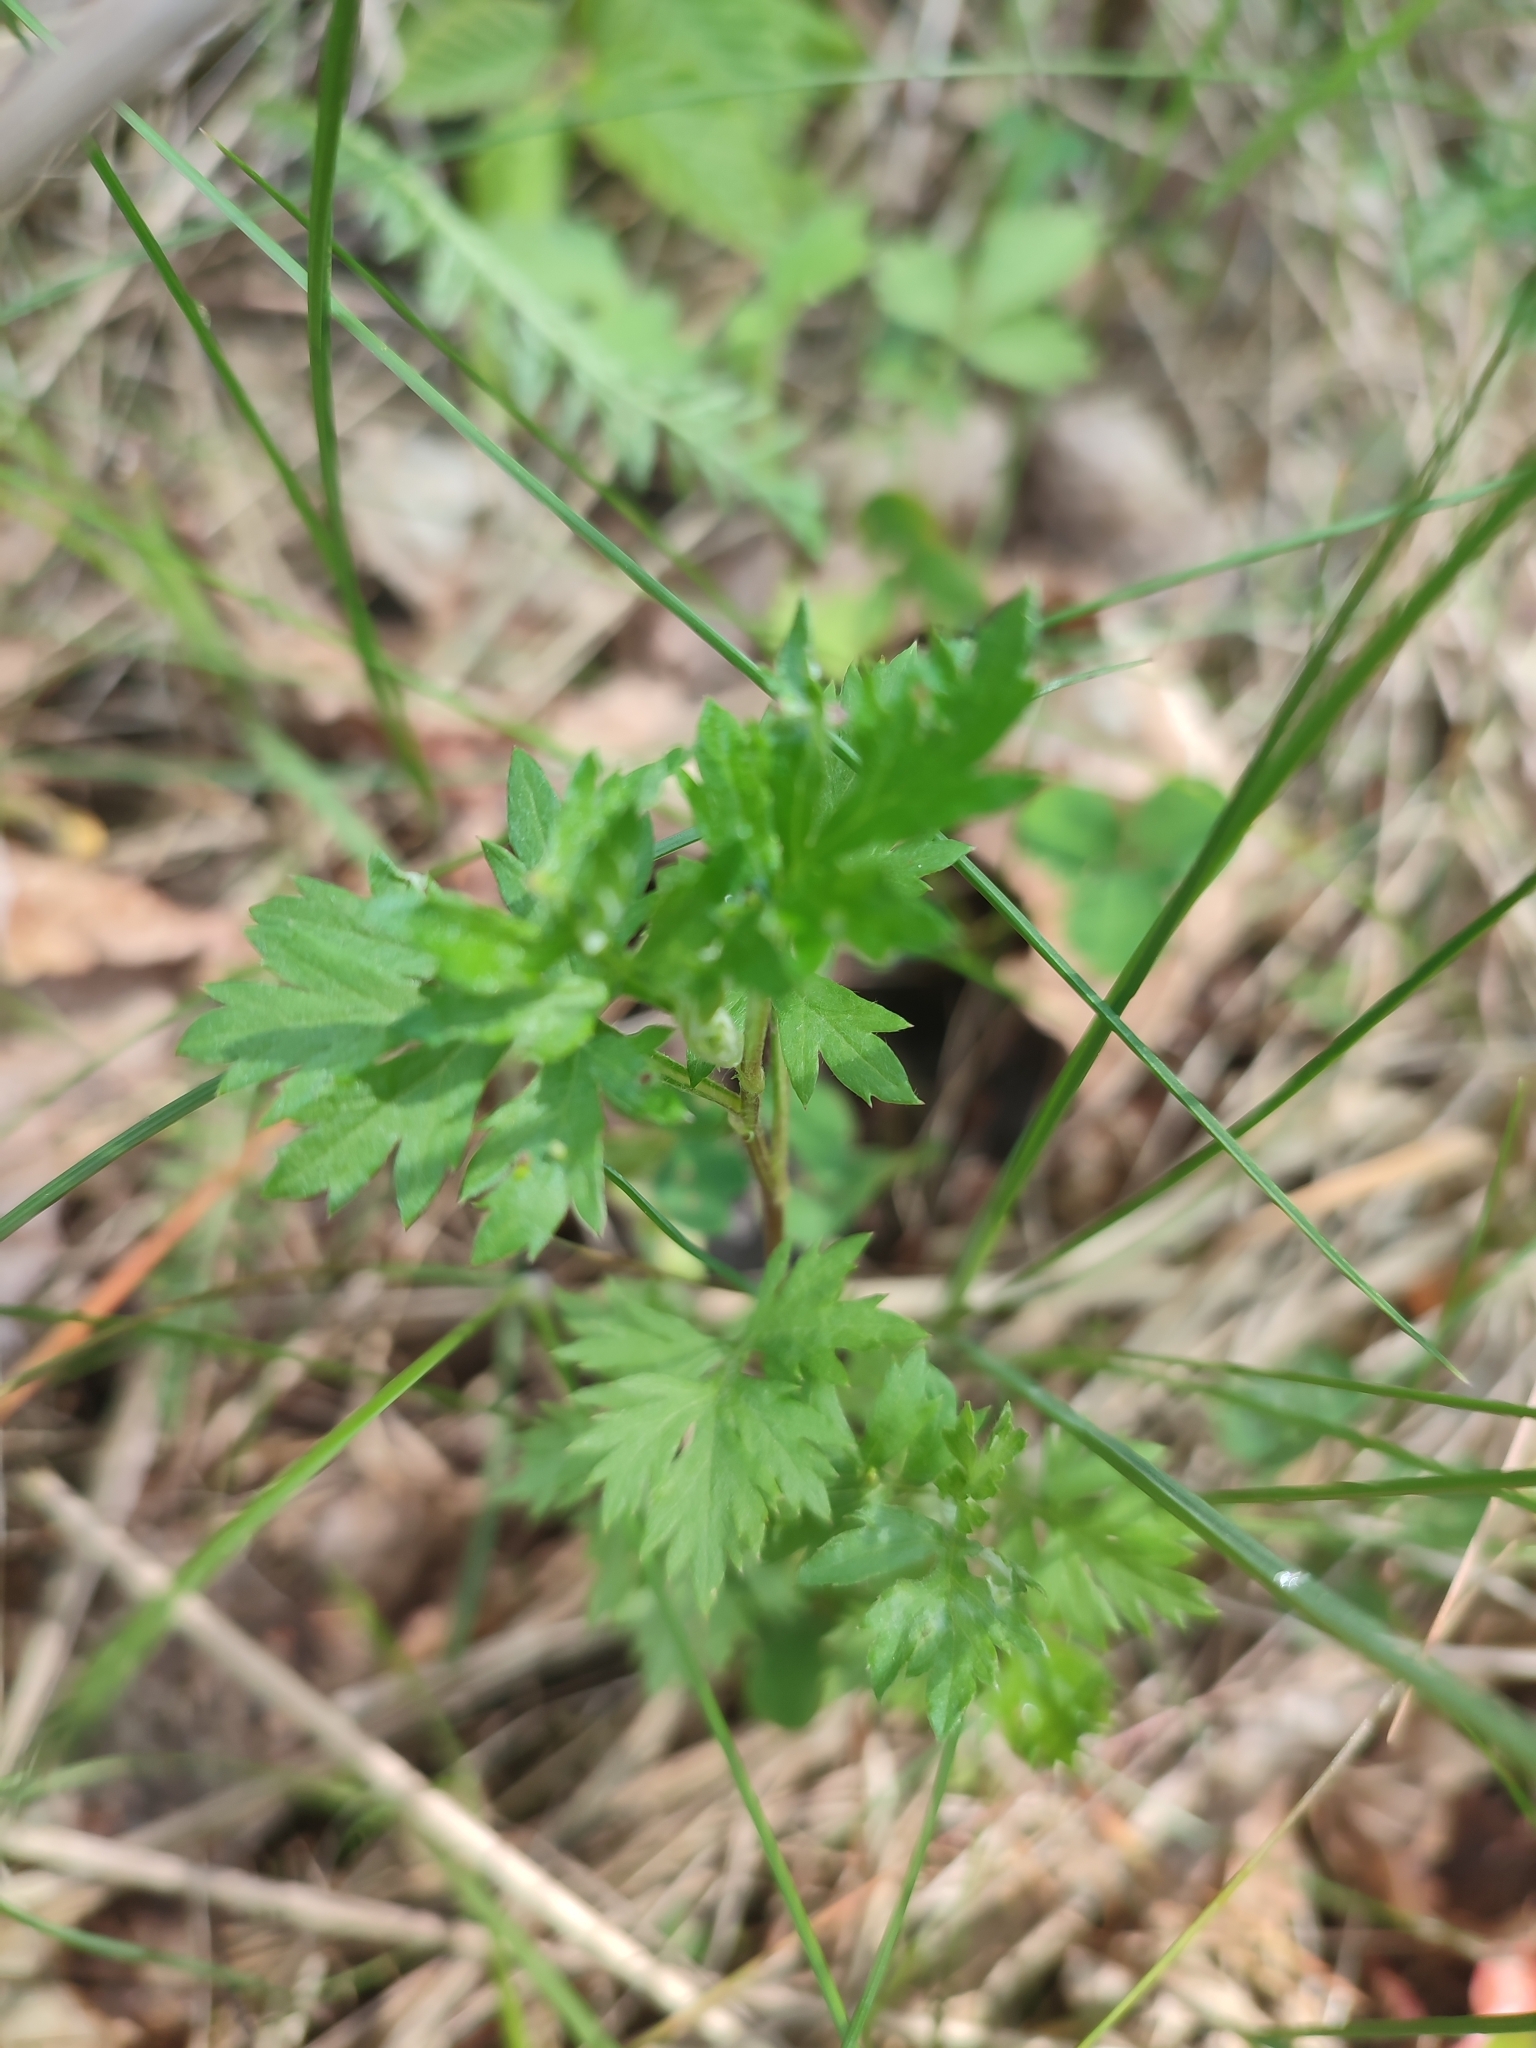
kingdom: Plantae
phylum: Tracheophyta
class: Magnoliopsida
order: Asterales
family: Asteraceae
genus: Artemisia
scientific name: Artemisia vulgaris
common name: Mugwort
